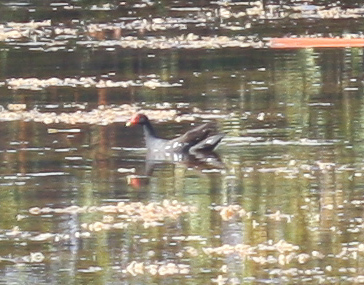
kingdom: Animalia
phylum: Chordata
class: Aves
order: Gruiformes
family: Rallidae
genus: Gallinula
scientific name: Gallinula chloropus
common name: Common moorhen
